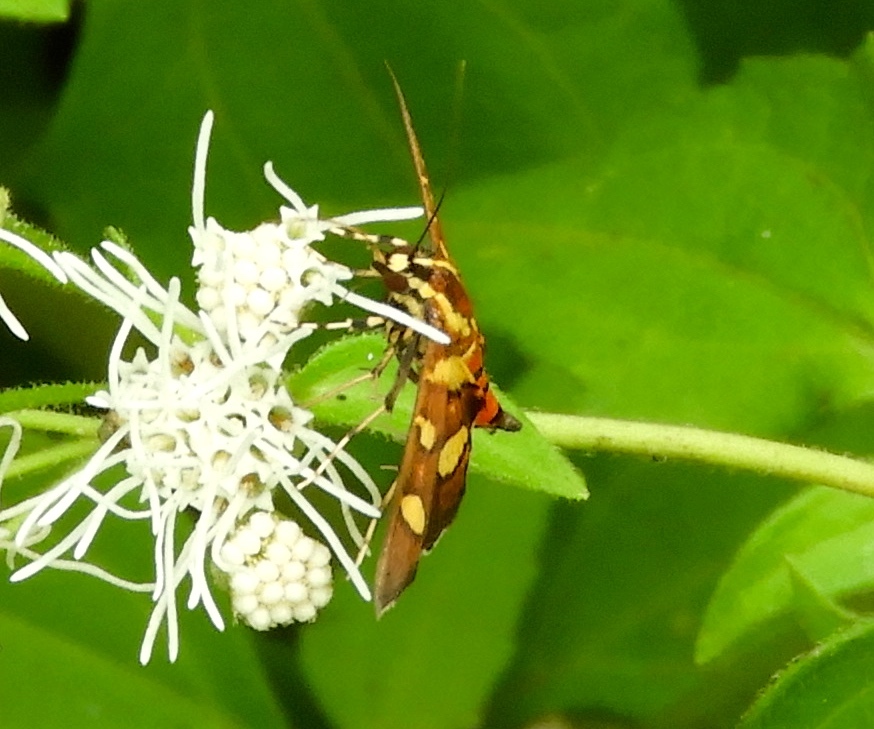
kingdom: Animalia
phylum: Arthropoda
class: Insecta
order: Lepidoptera
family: Crambidae
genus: Syngamia
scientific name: Syngamia florella
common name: Orange-spotted flower moth
